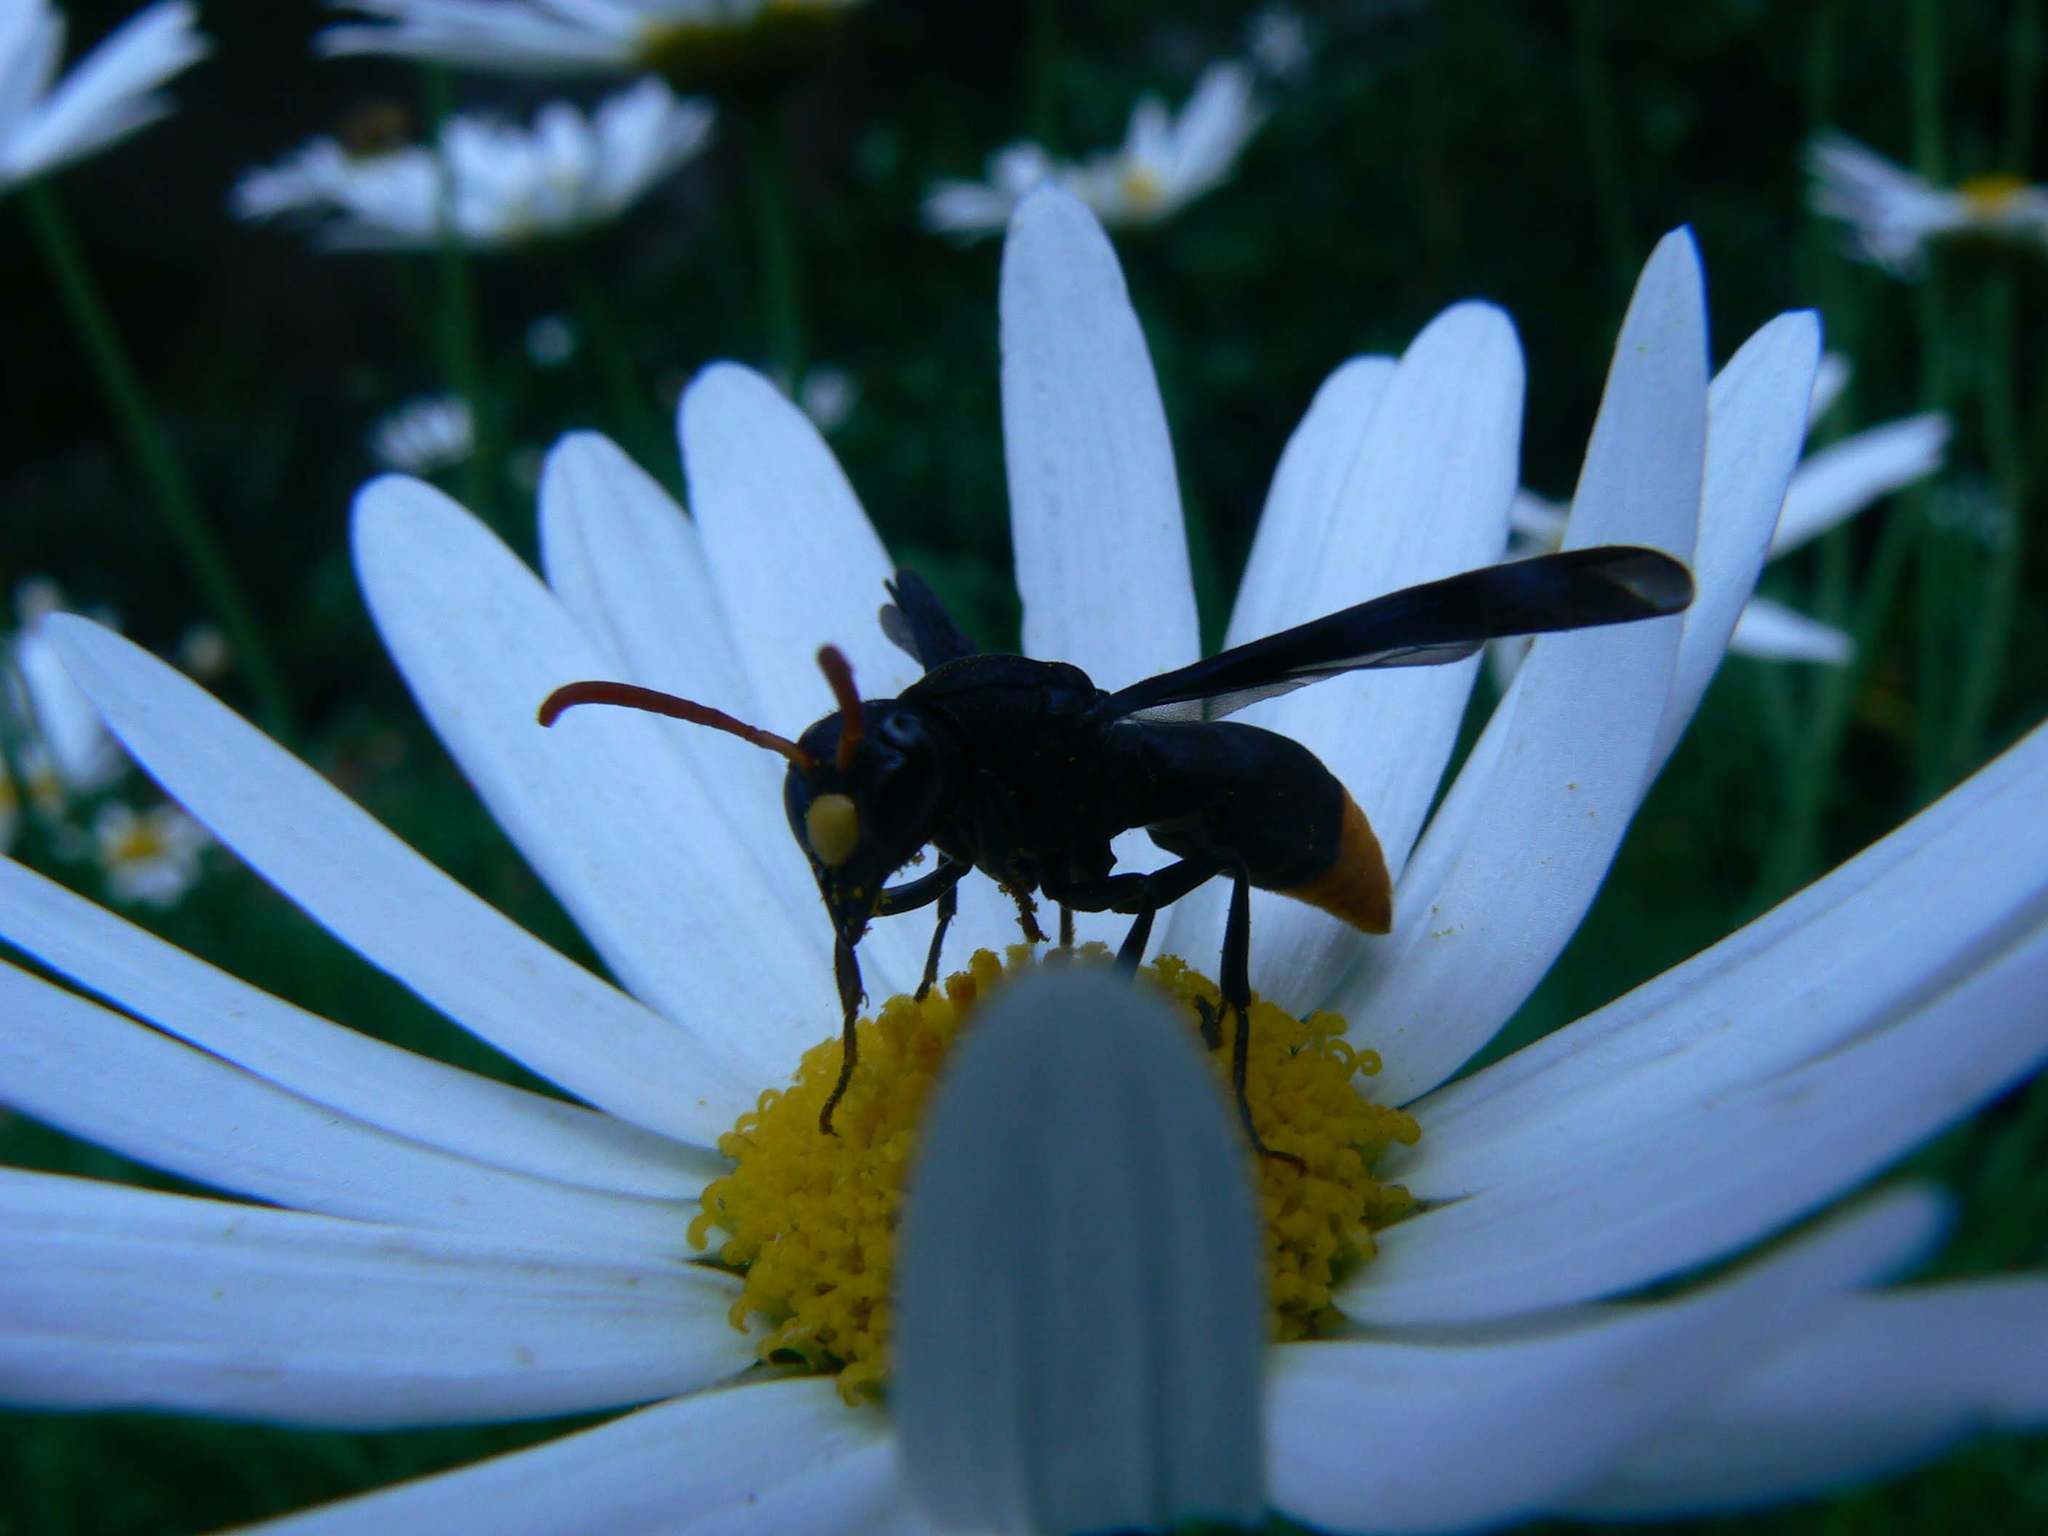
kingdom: Animalia
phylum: Arthropoda
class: Insecta
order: Hymenoptera
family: Eumenidae
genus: Anterhynchium
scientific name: Anterhynchium natalense
